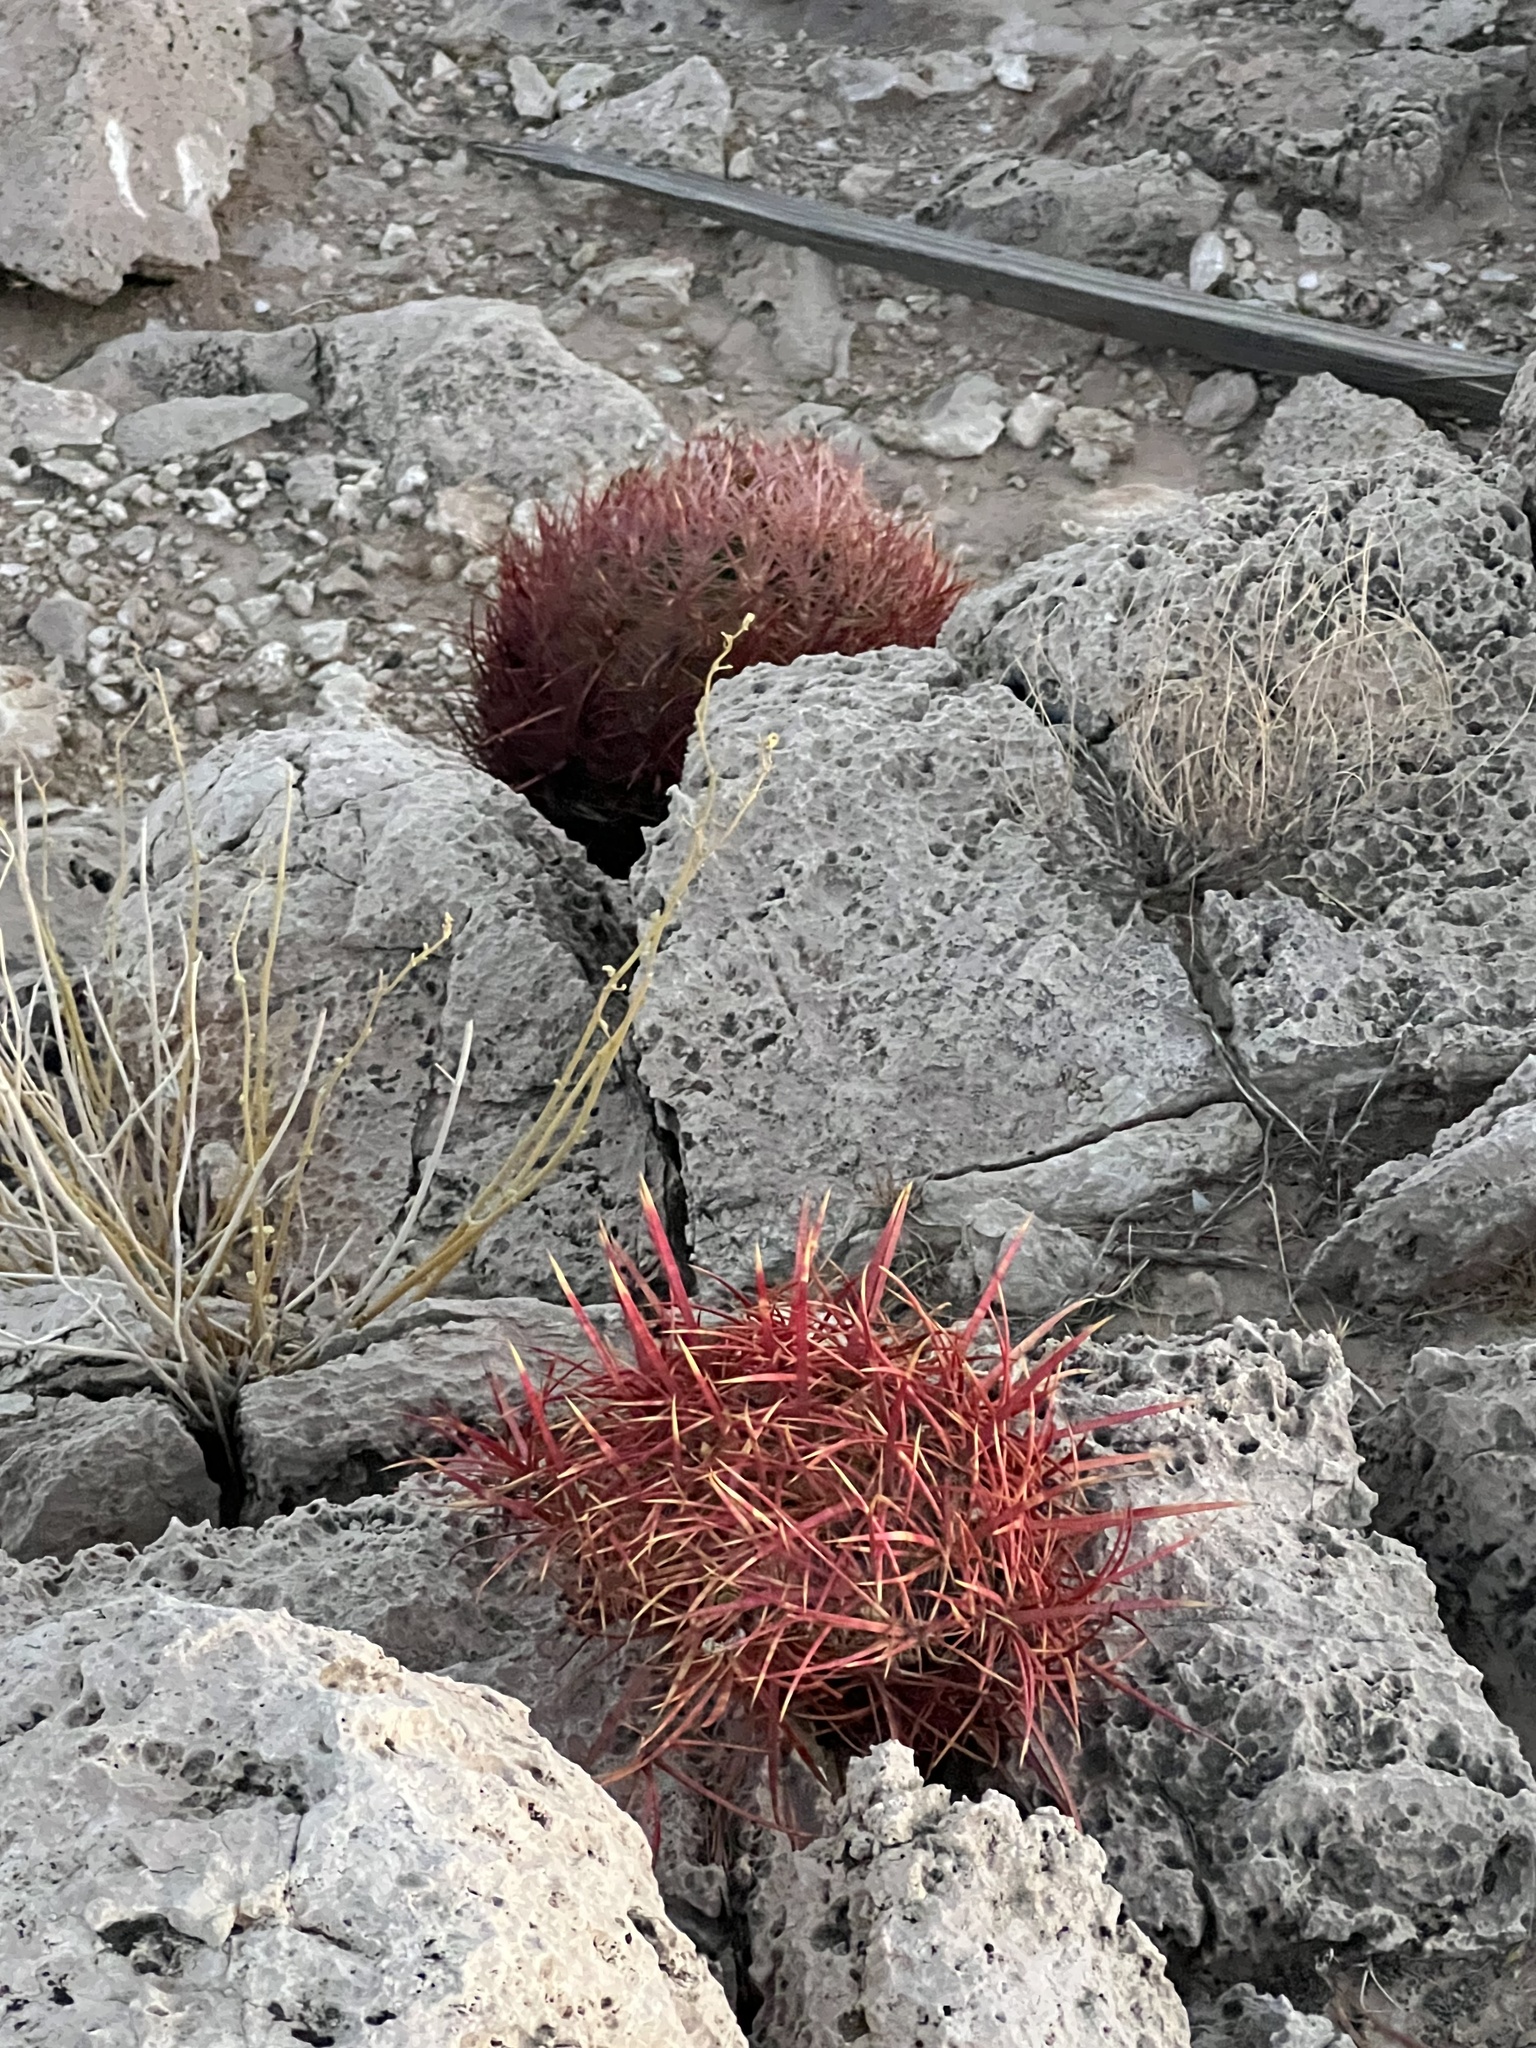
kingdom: Plantae
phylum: Tracheophyta
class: Magnoliopsida
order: Caryophyllales
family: Cactaceae
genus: Ferocactus
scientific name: Ferocactus cylindraceus
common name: California barrel cactus
